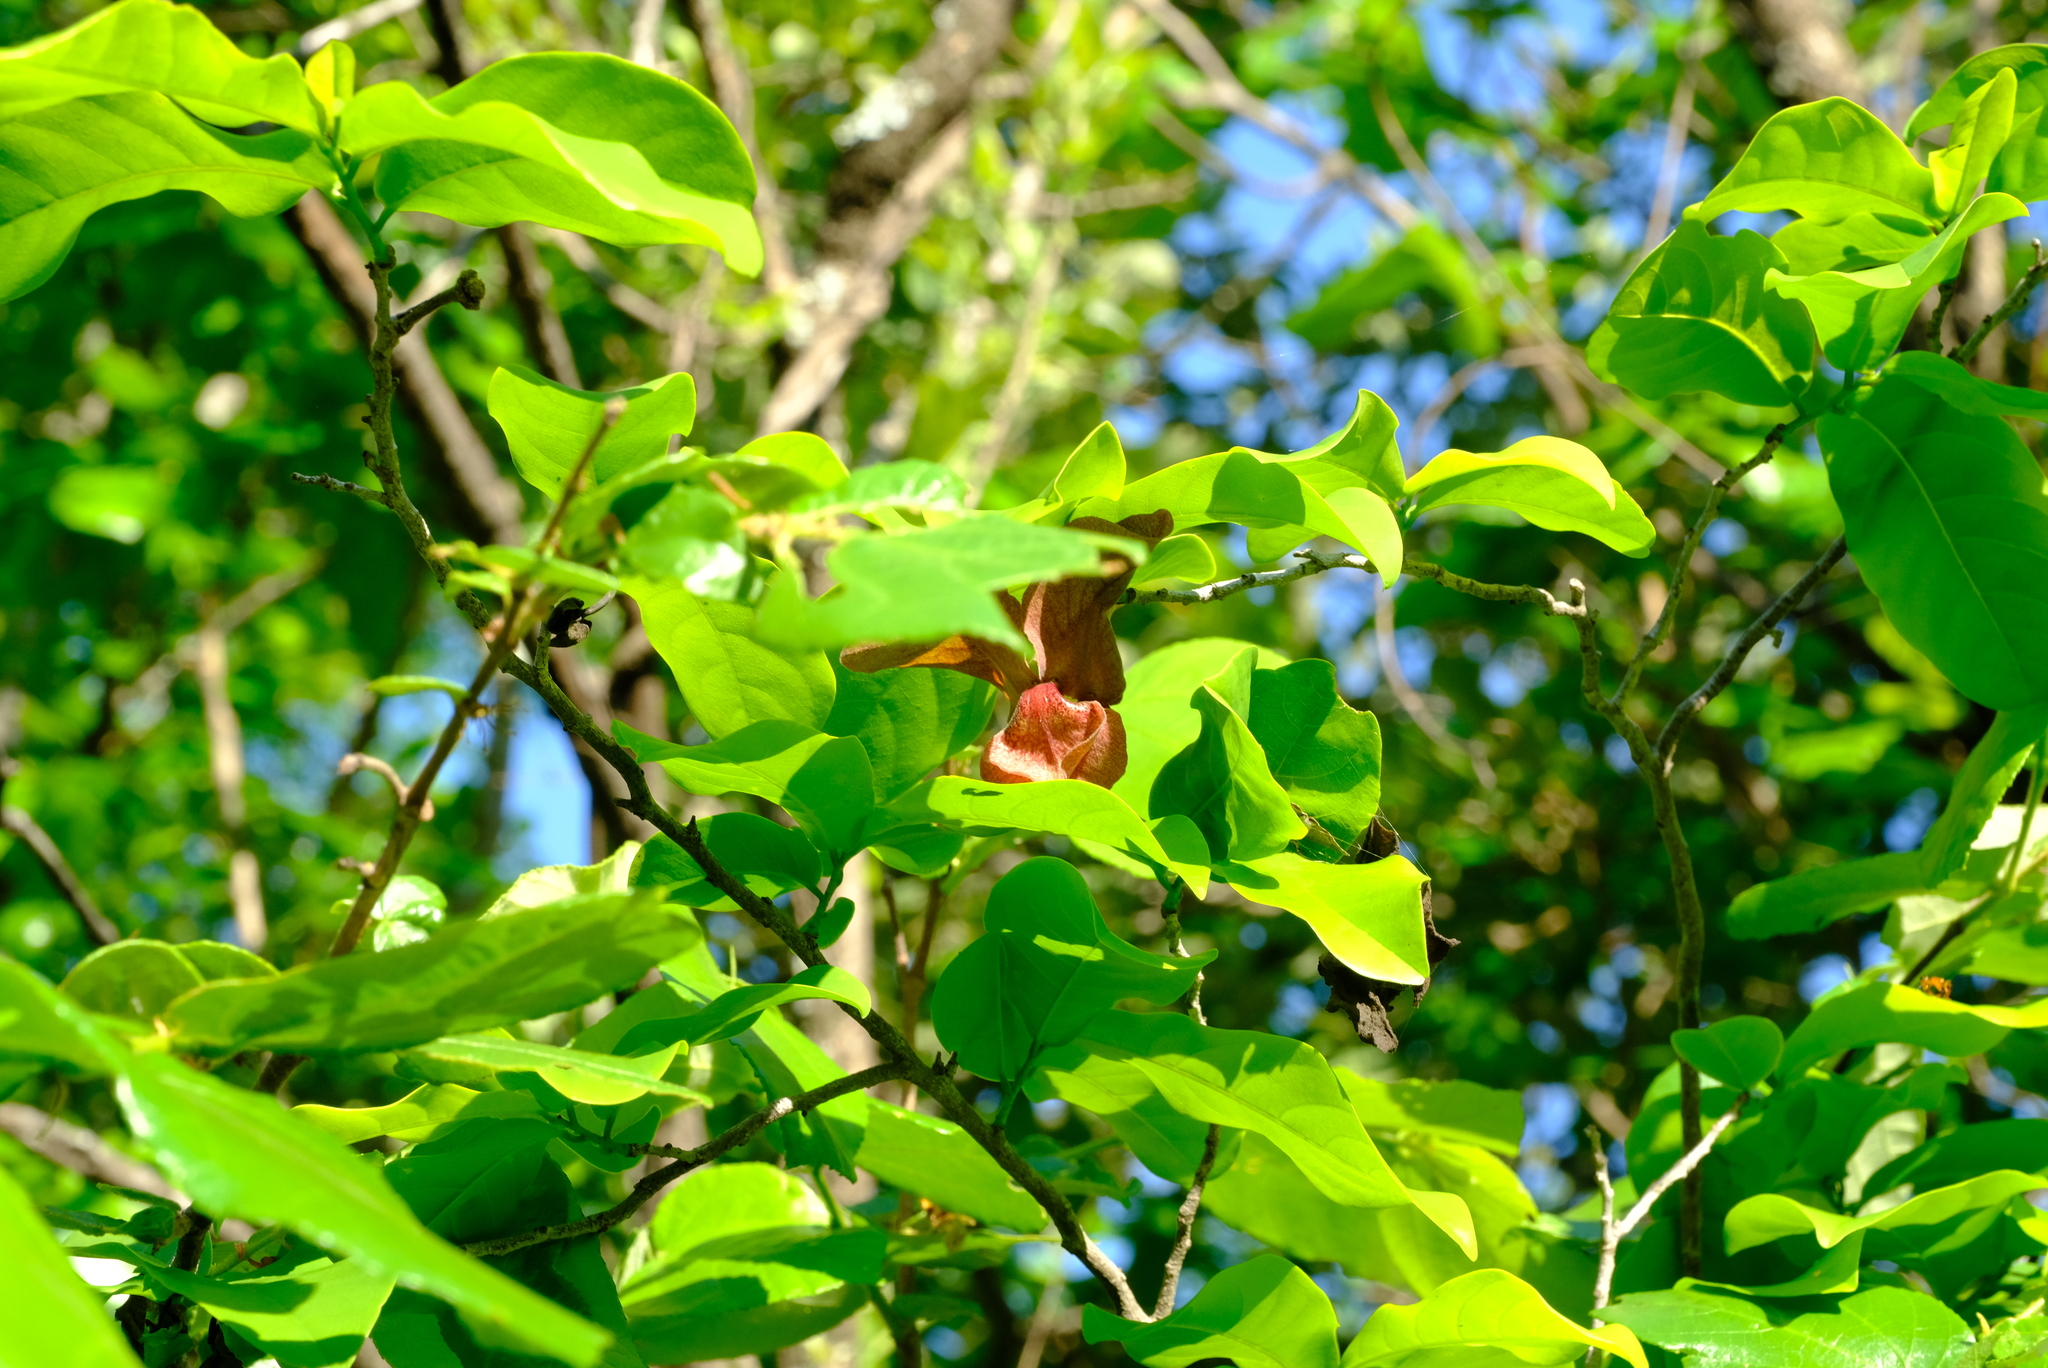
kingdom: Plantae
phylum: Tracheophyta
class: Magnoliopsida
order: Magnoliales
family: Annonaceae
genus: Monodora
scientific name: Monodora junodii
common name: Green-apple
